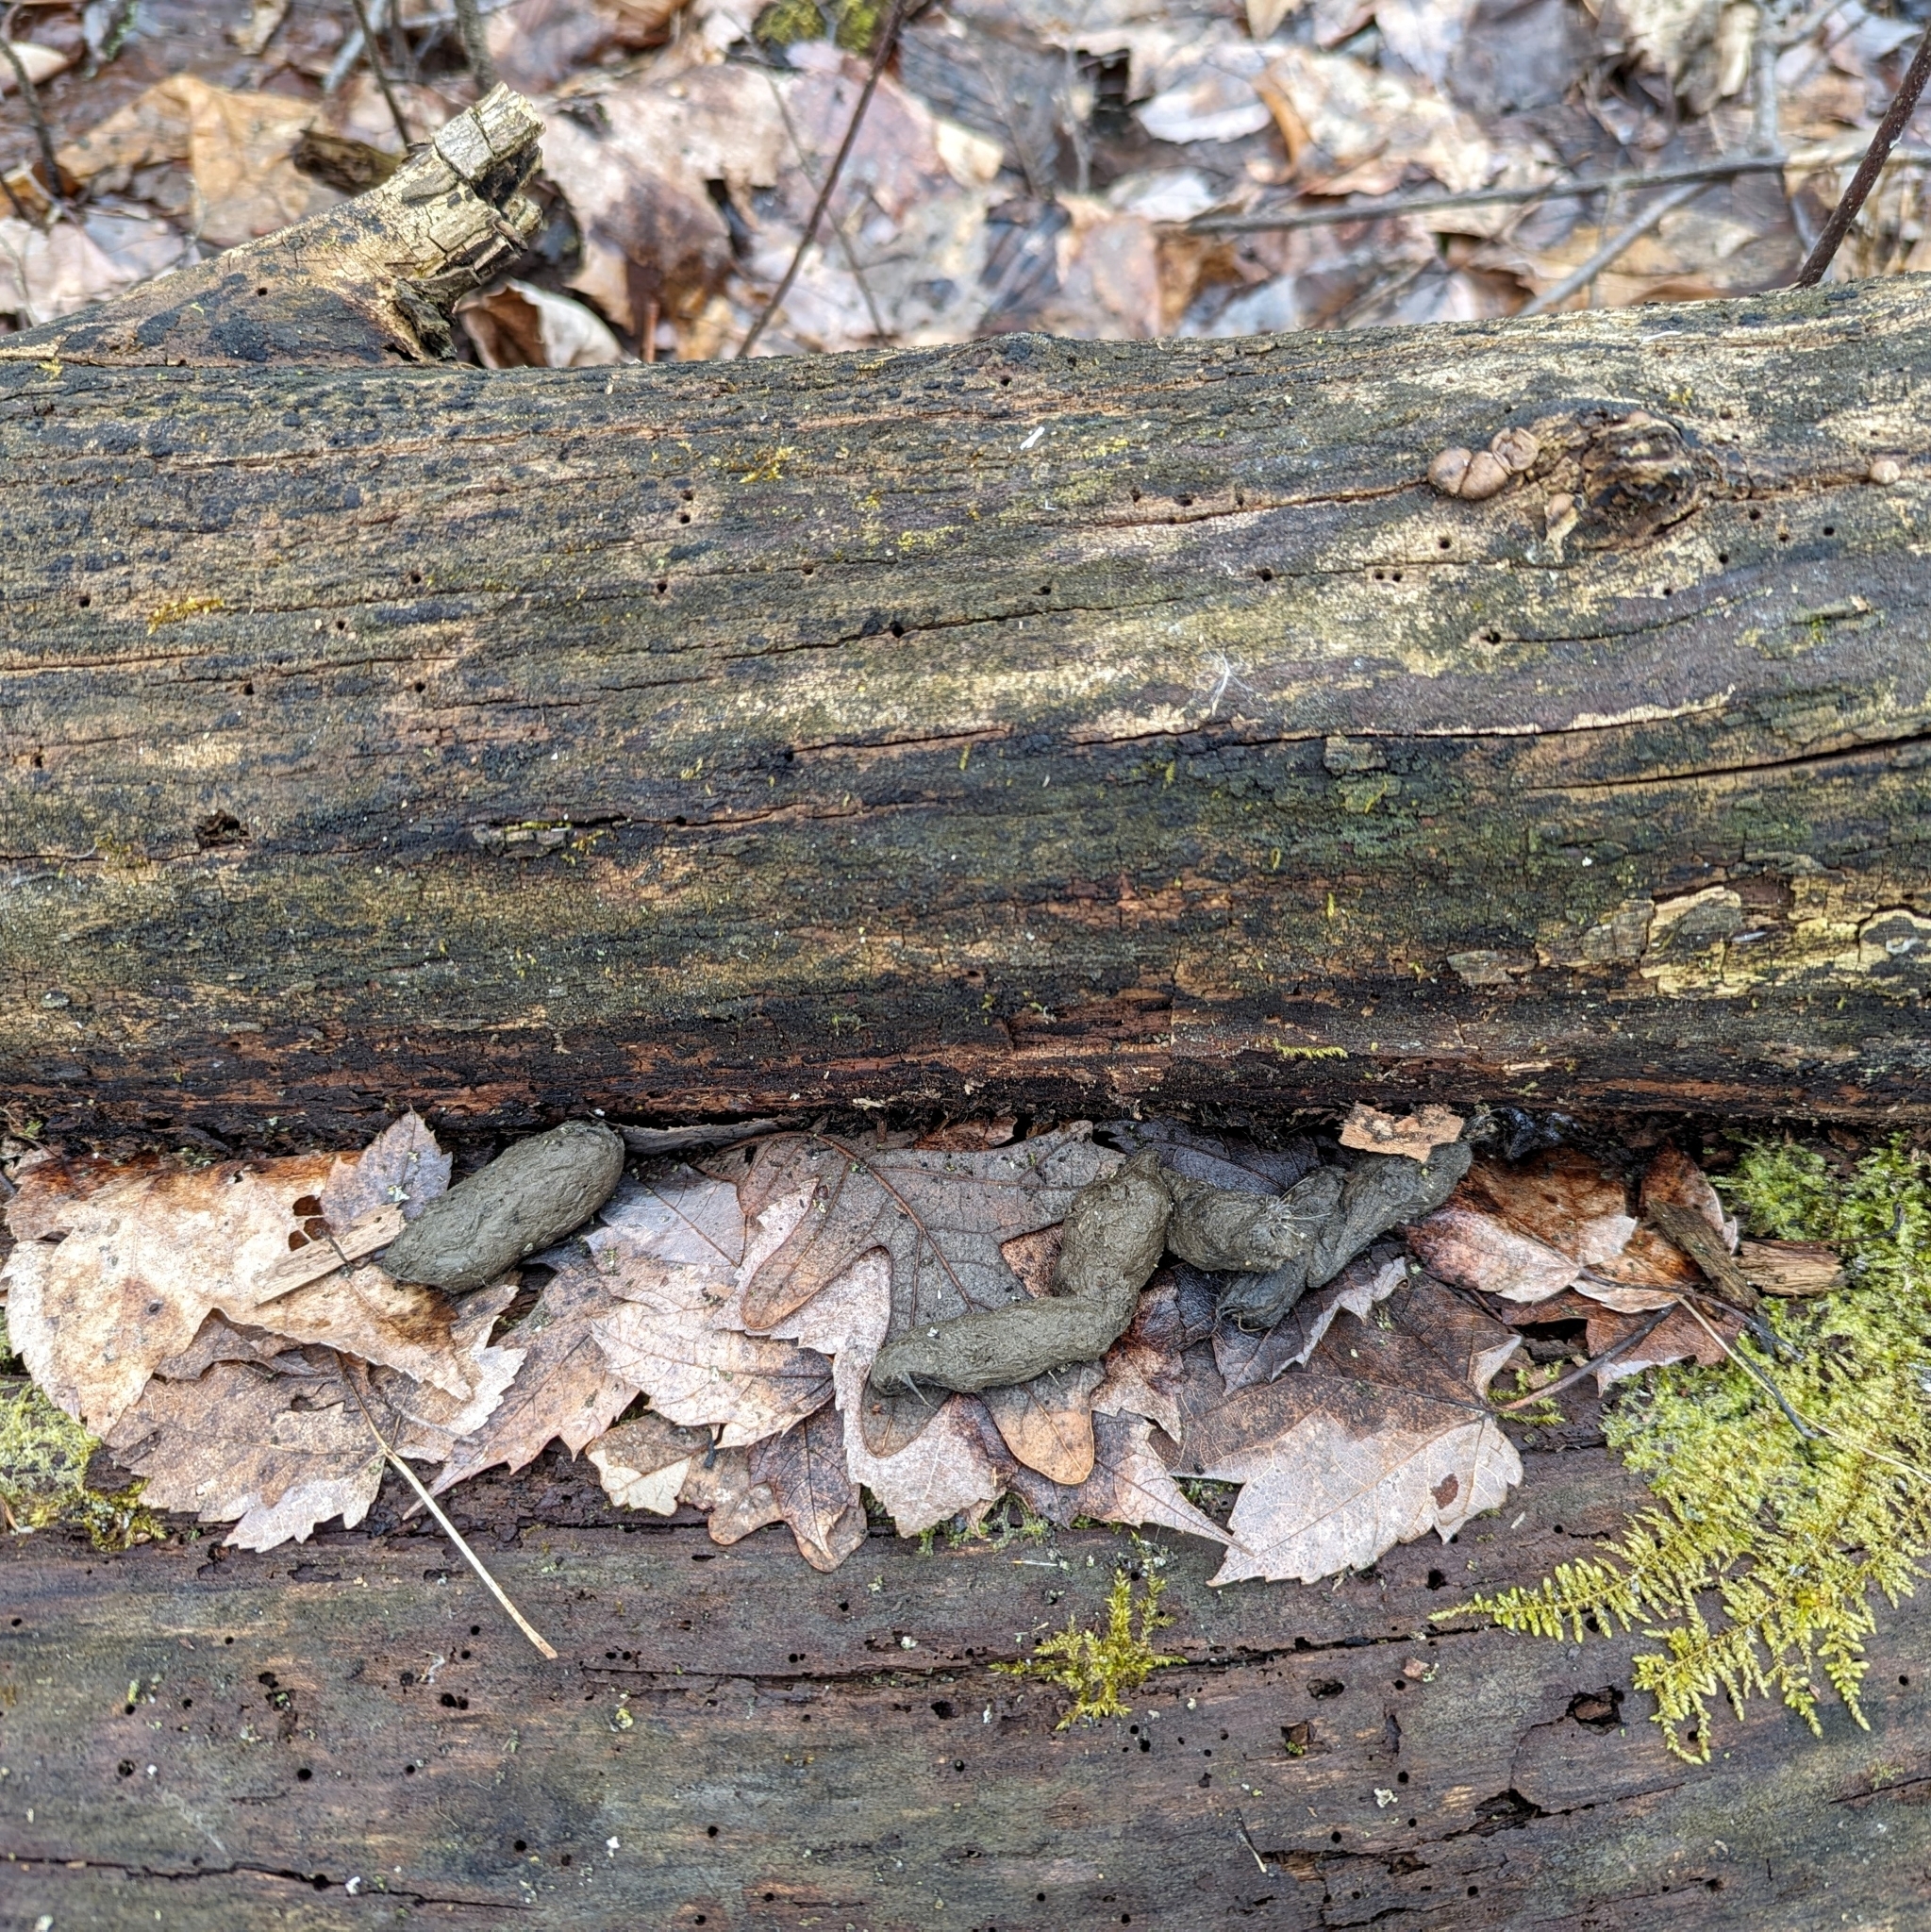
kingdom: Animalia
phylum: Chordata
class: Mammalia
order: Carnivora
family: Felidae
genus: Felis
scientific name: Felis catus
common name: Domestic cat
